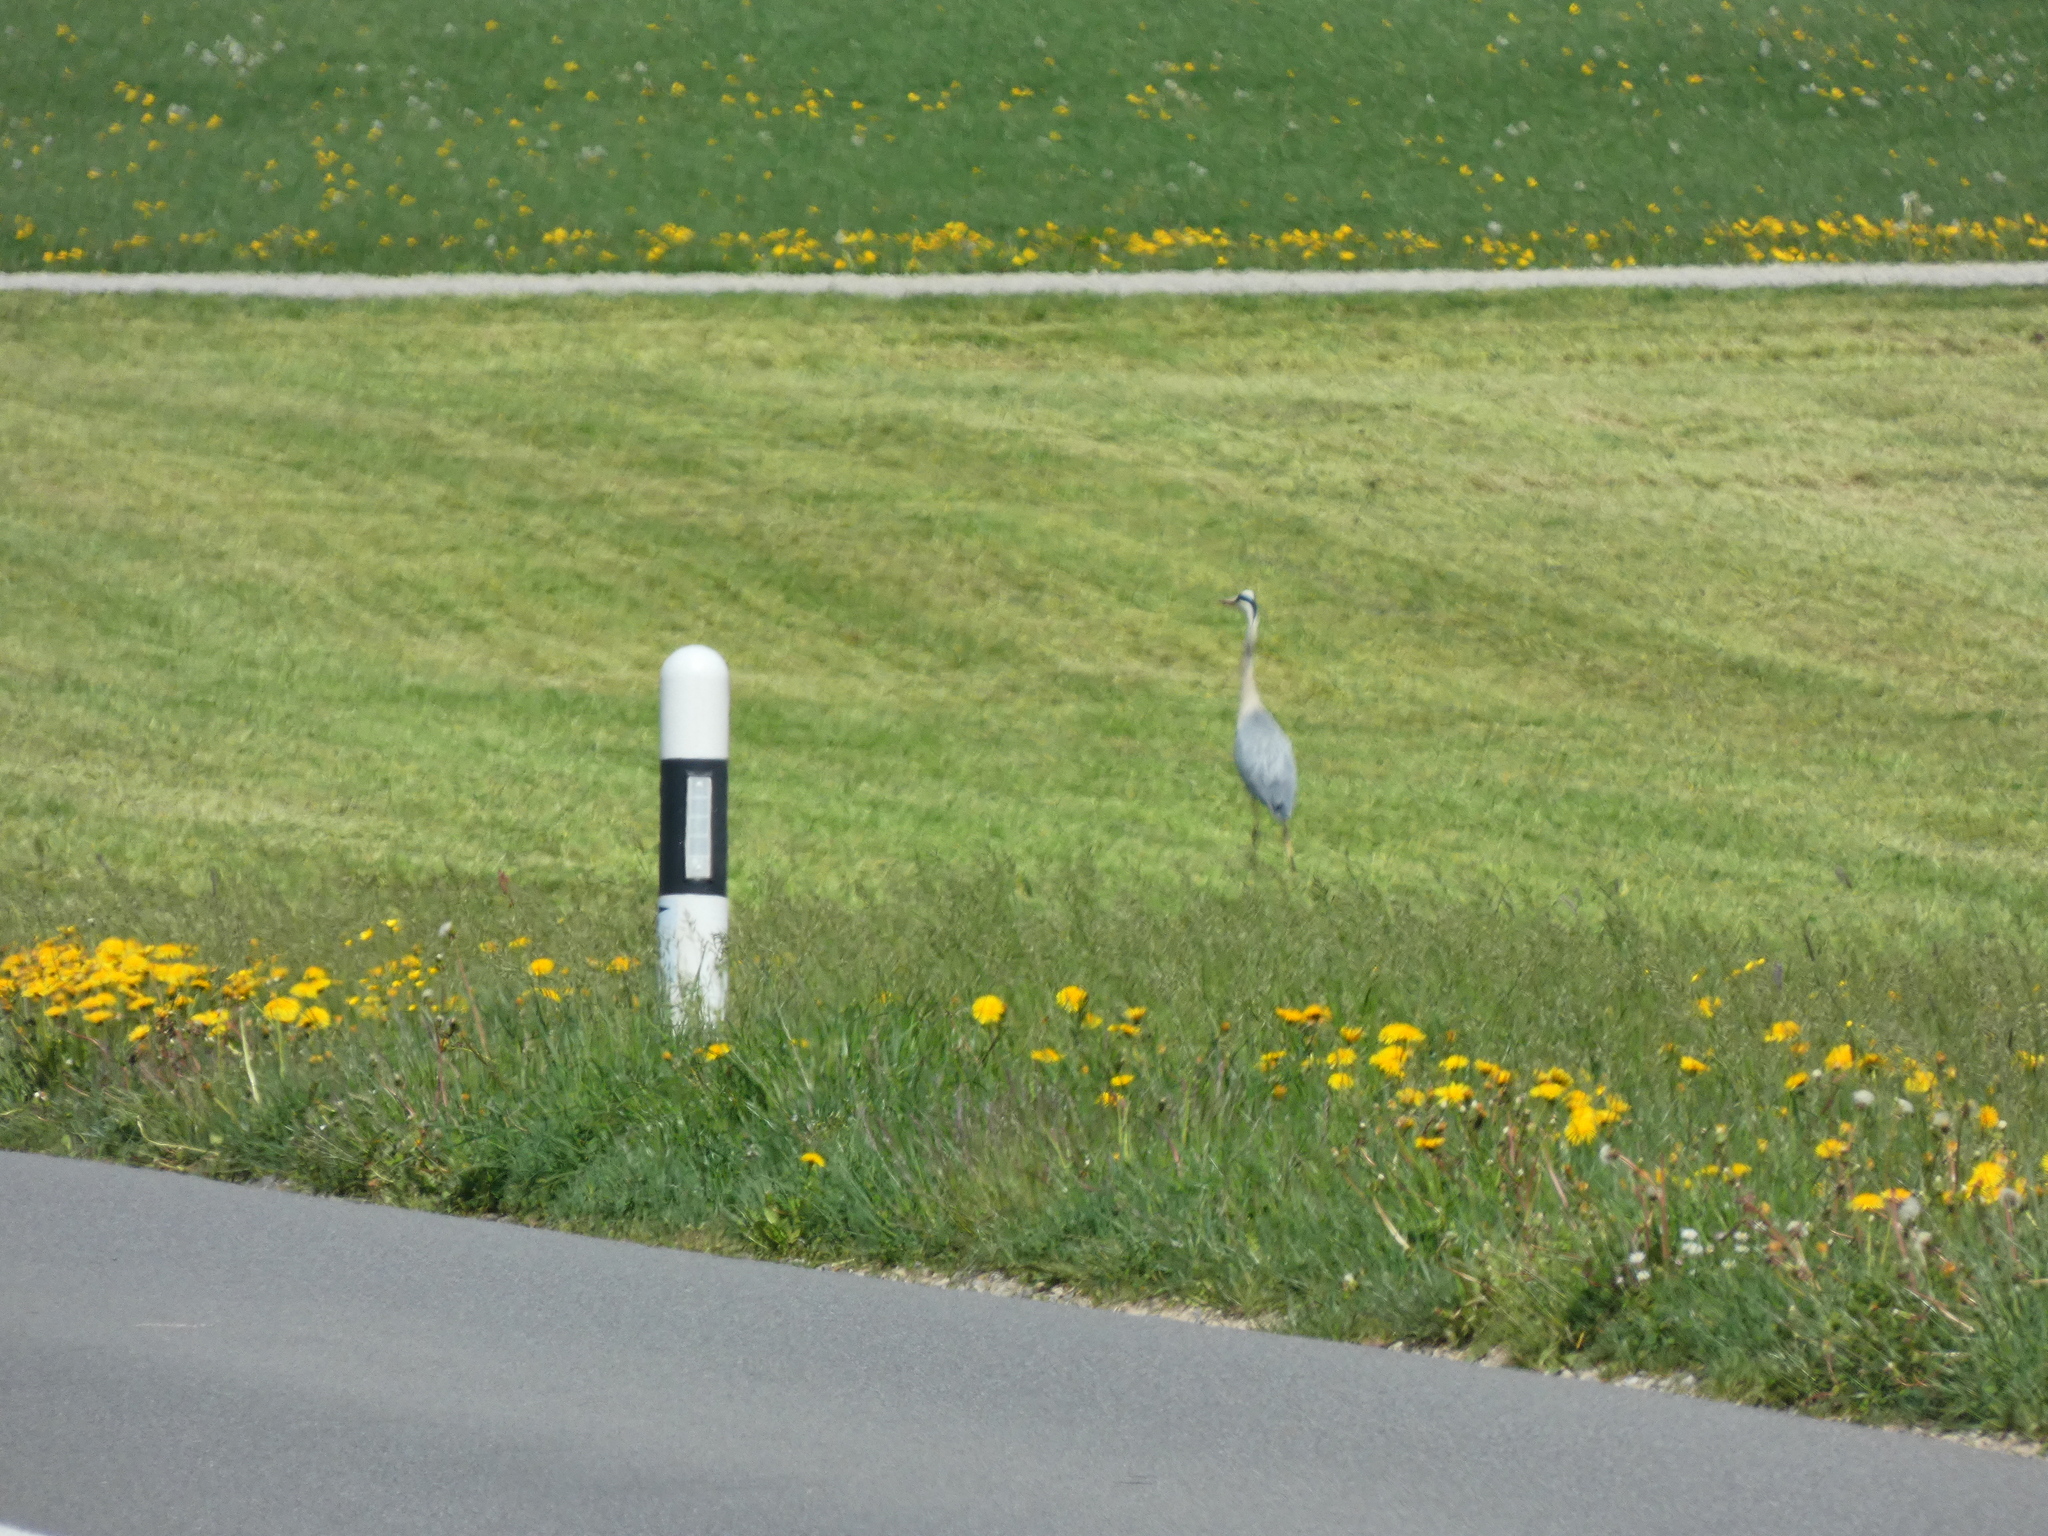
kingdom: Animalia
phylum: Chordata
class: Aves
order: Pelecaniformes
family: Ardeidae
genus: Ardea
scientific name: Ardea cinerea
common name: Grey heron
